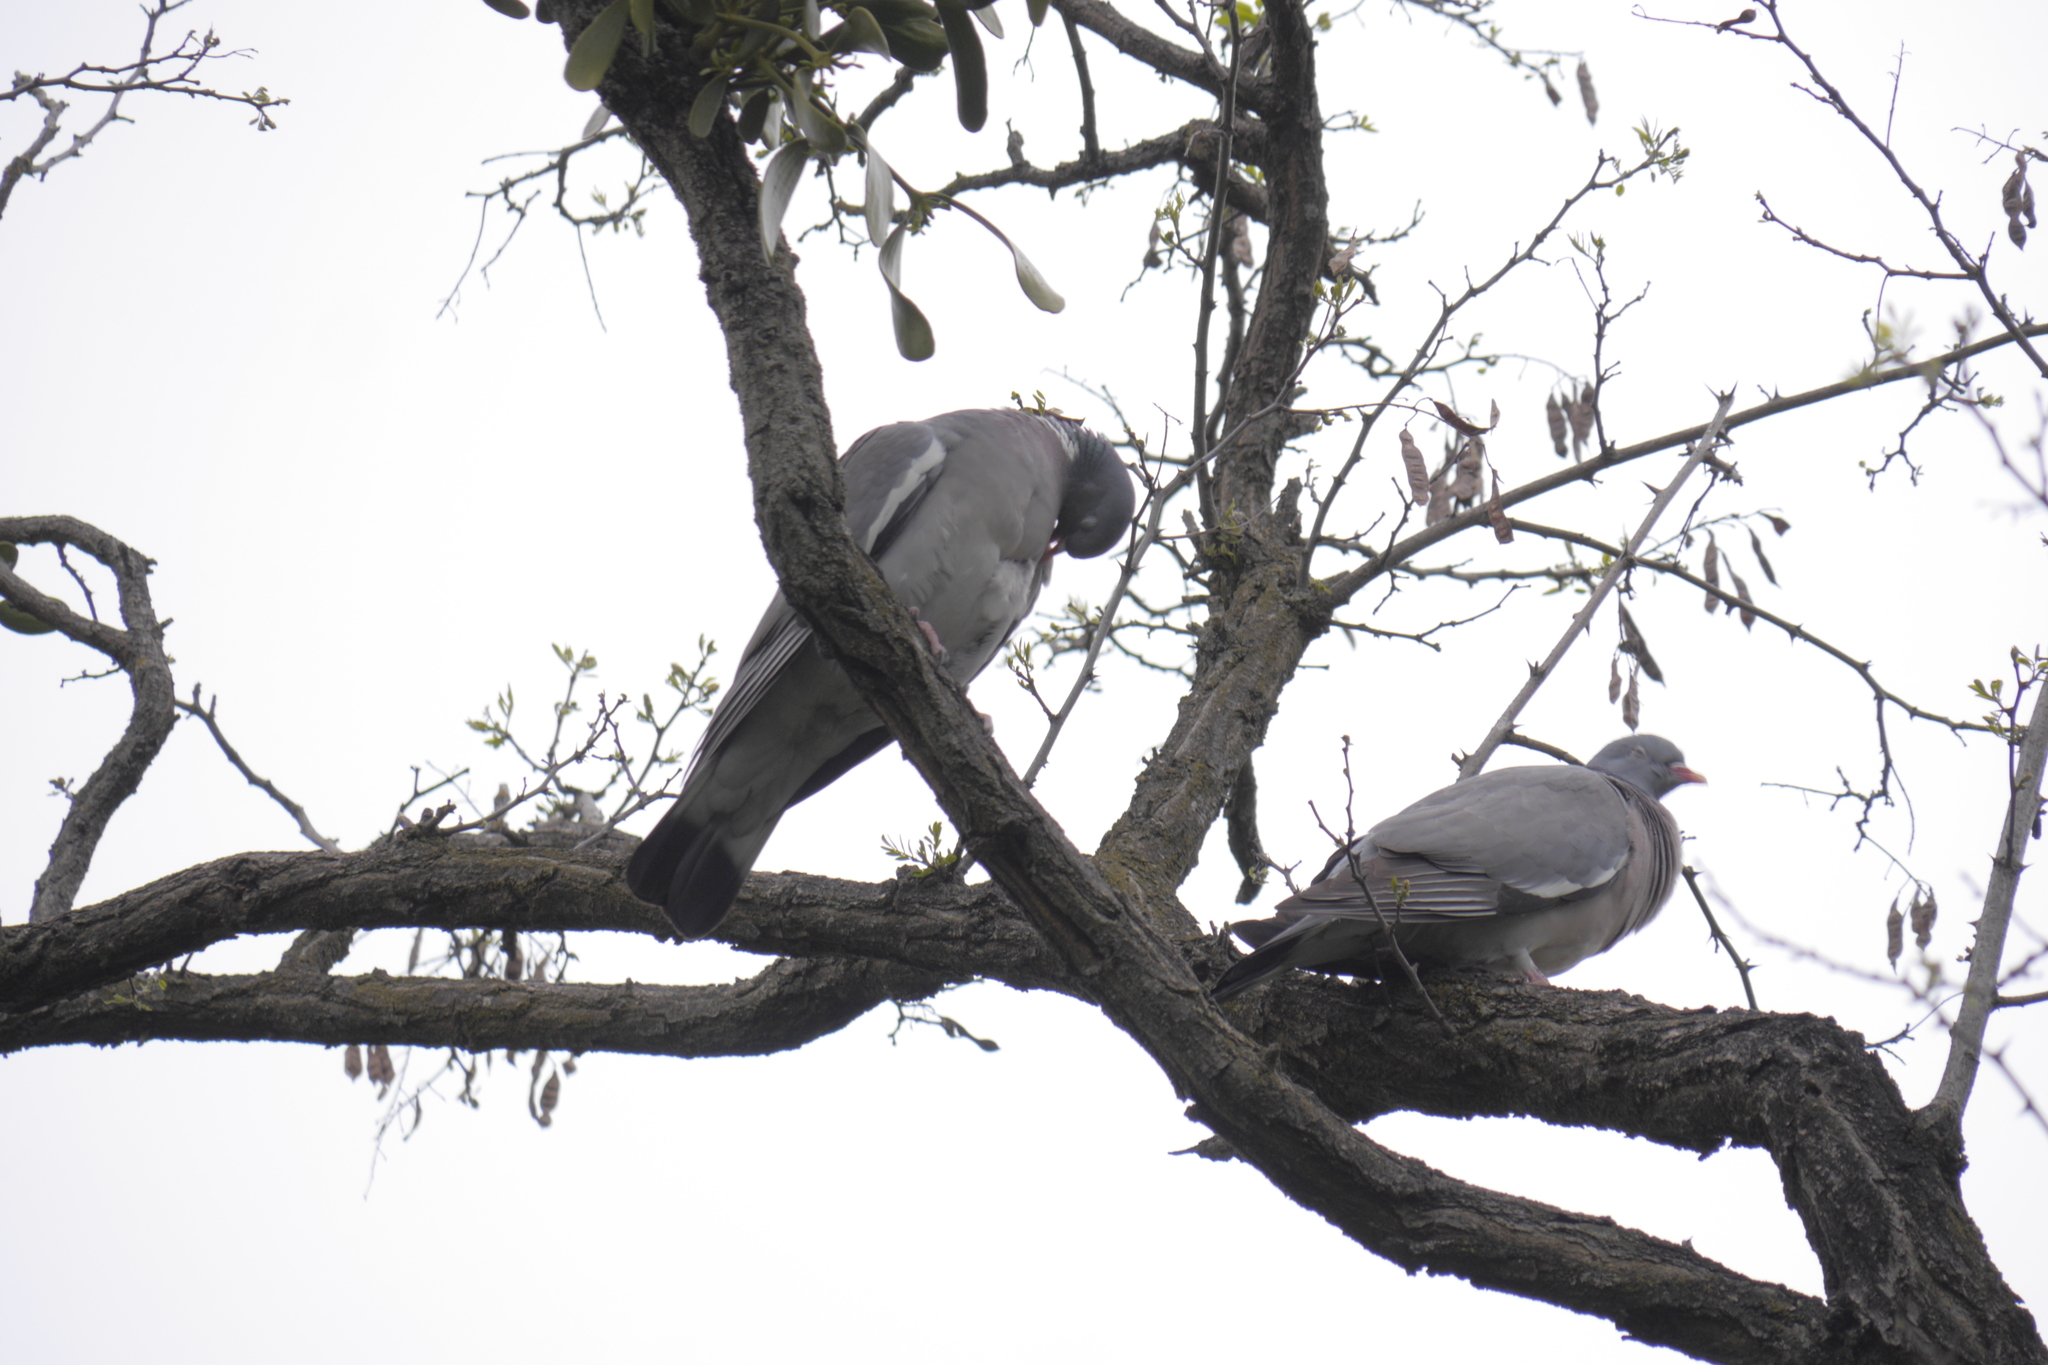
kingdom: Animalia
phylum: Chordata
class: Aves
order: Columbiformes
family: Columbidae
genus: Columba
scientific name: Columba palumbus
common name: Common wood pigeon
